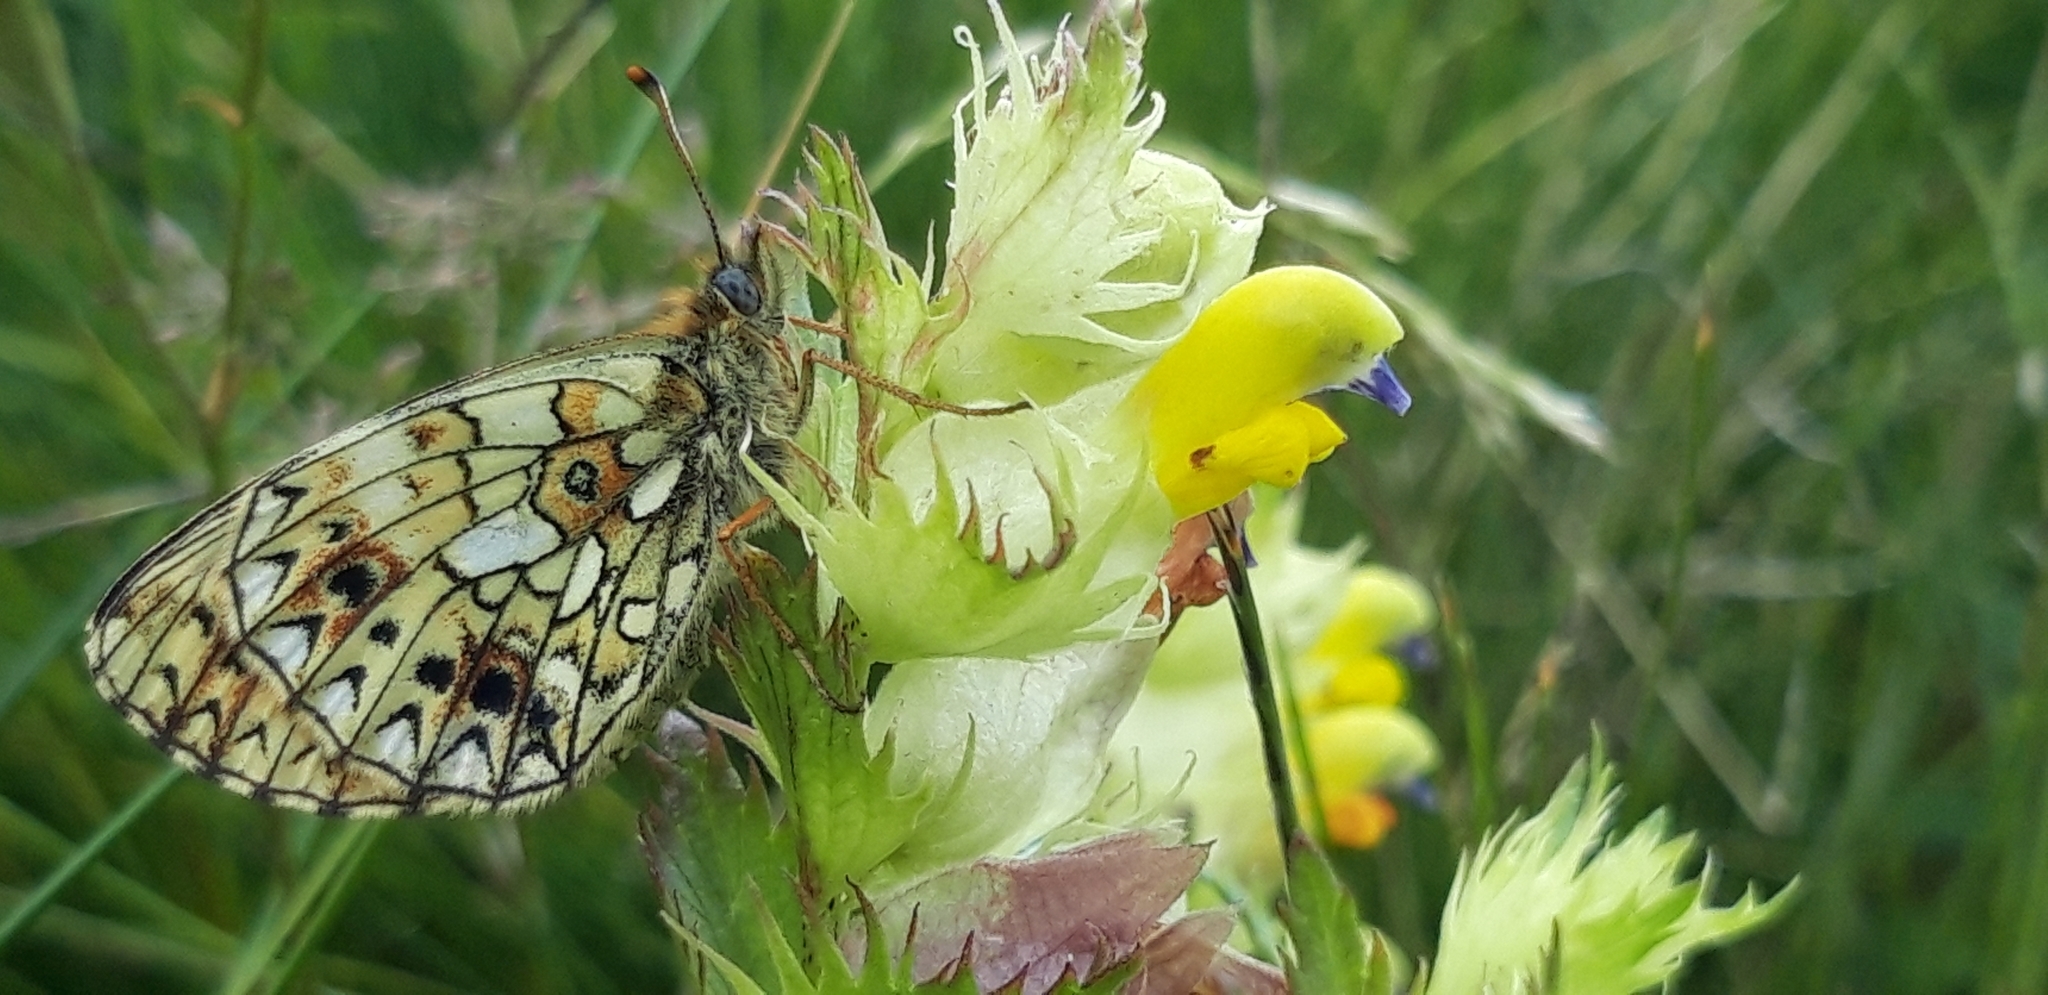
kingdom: Animalia
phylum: Arthropoda
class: Insecta
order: Lepidoptera
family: Nymphalidae
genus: Boloria
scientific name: Boloria selene
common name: Small pearl-bordered fritillary
